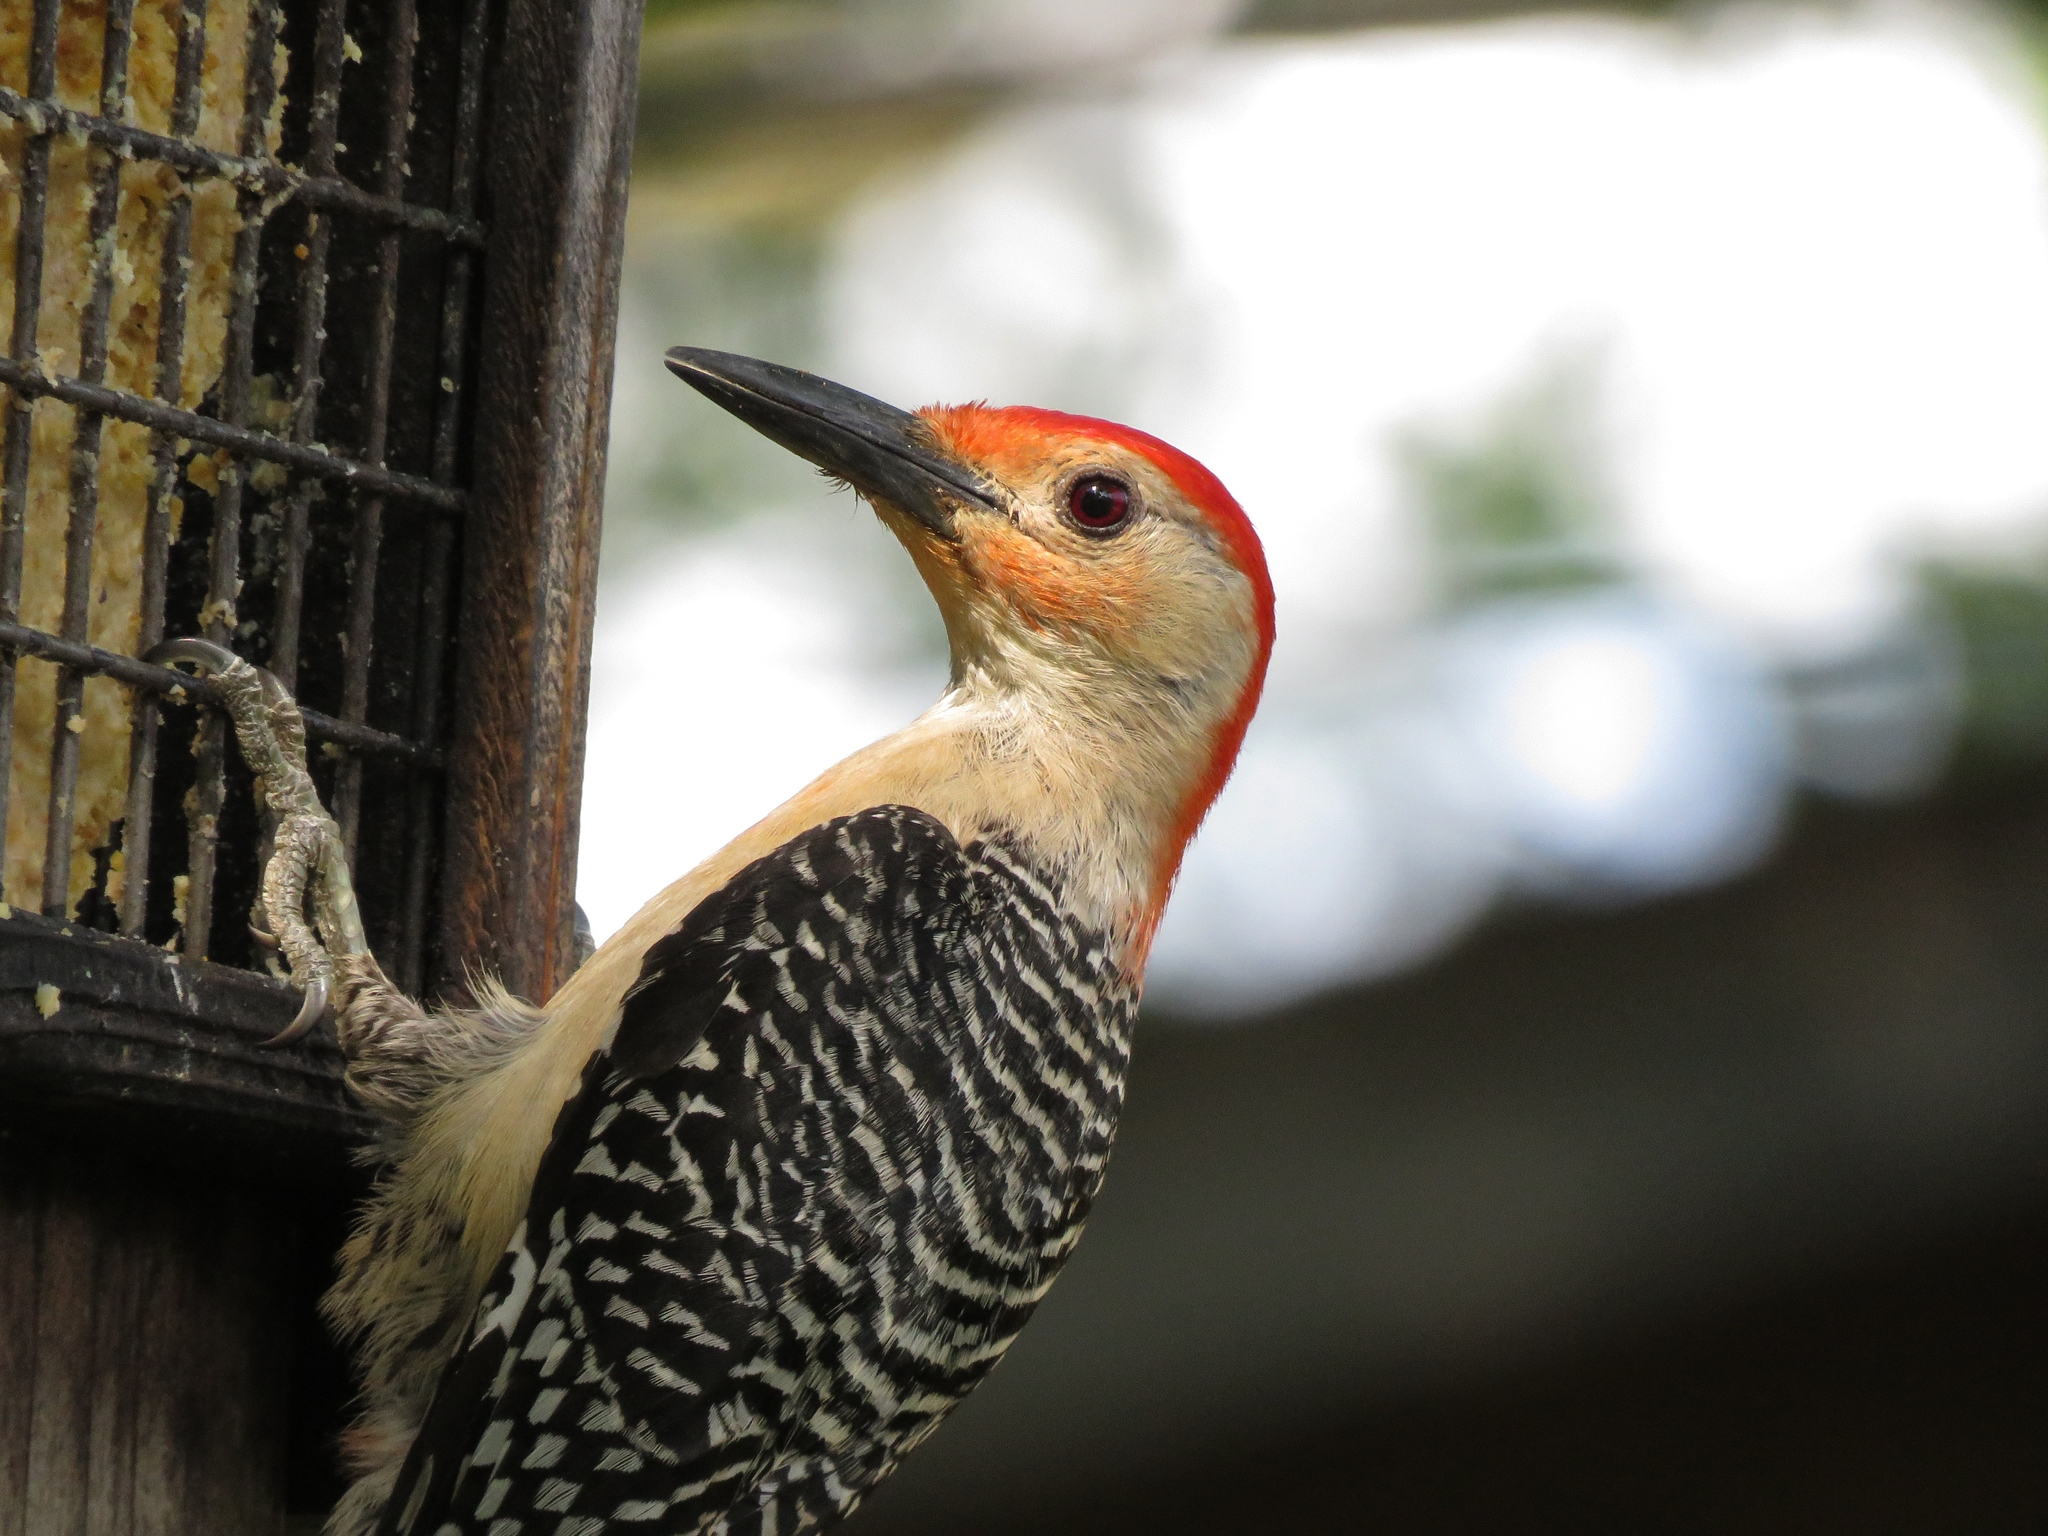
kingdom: Animalia
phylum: Chordata
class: Aves
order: Piciformes
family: Picidae
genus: Melanerpes
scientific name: Melanerpes carolinus
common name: Red-bellied woodpecker
